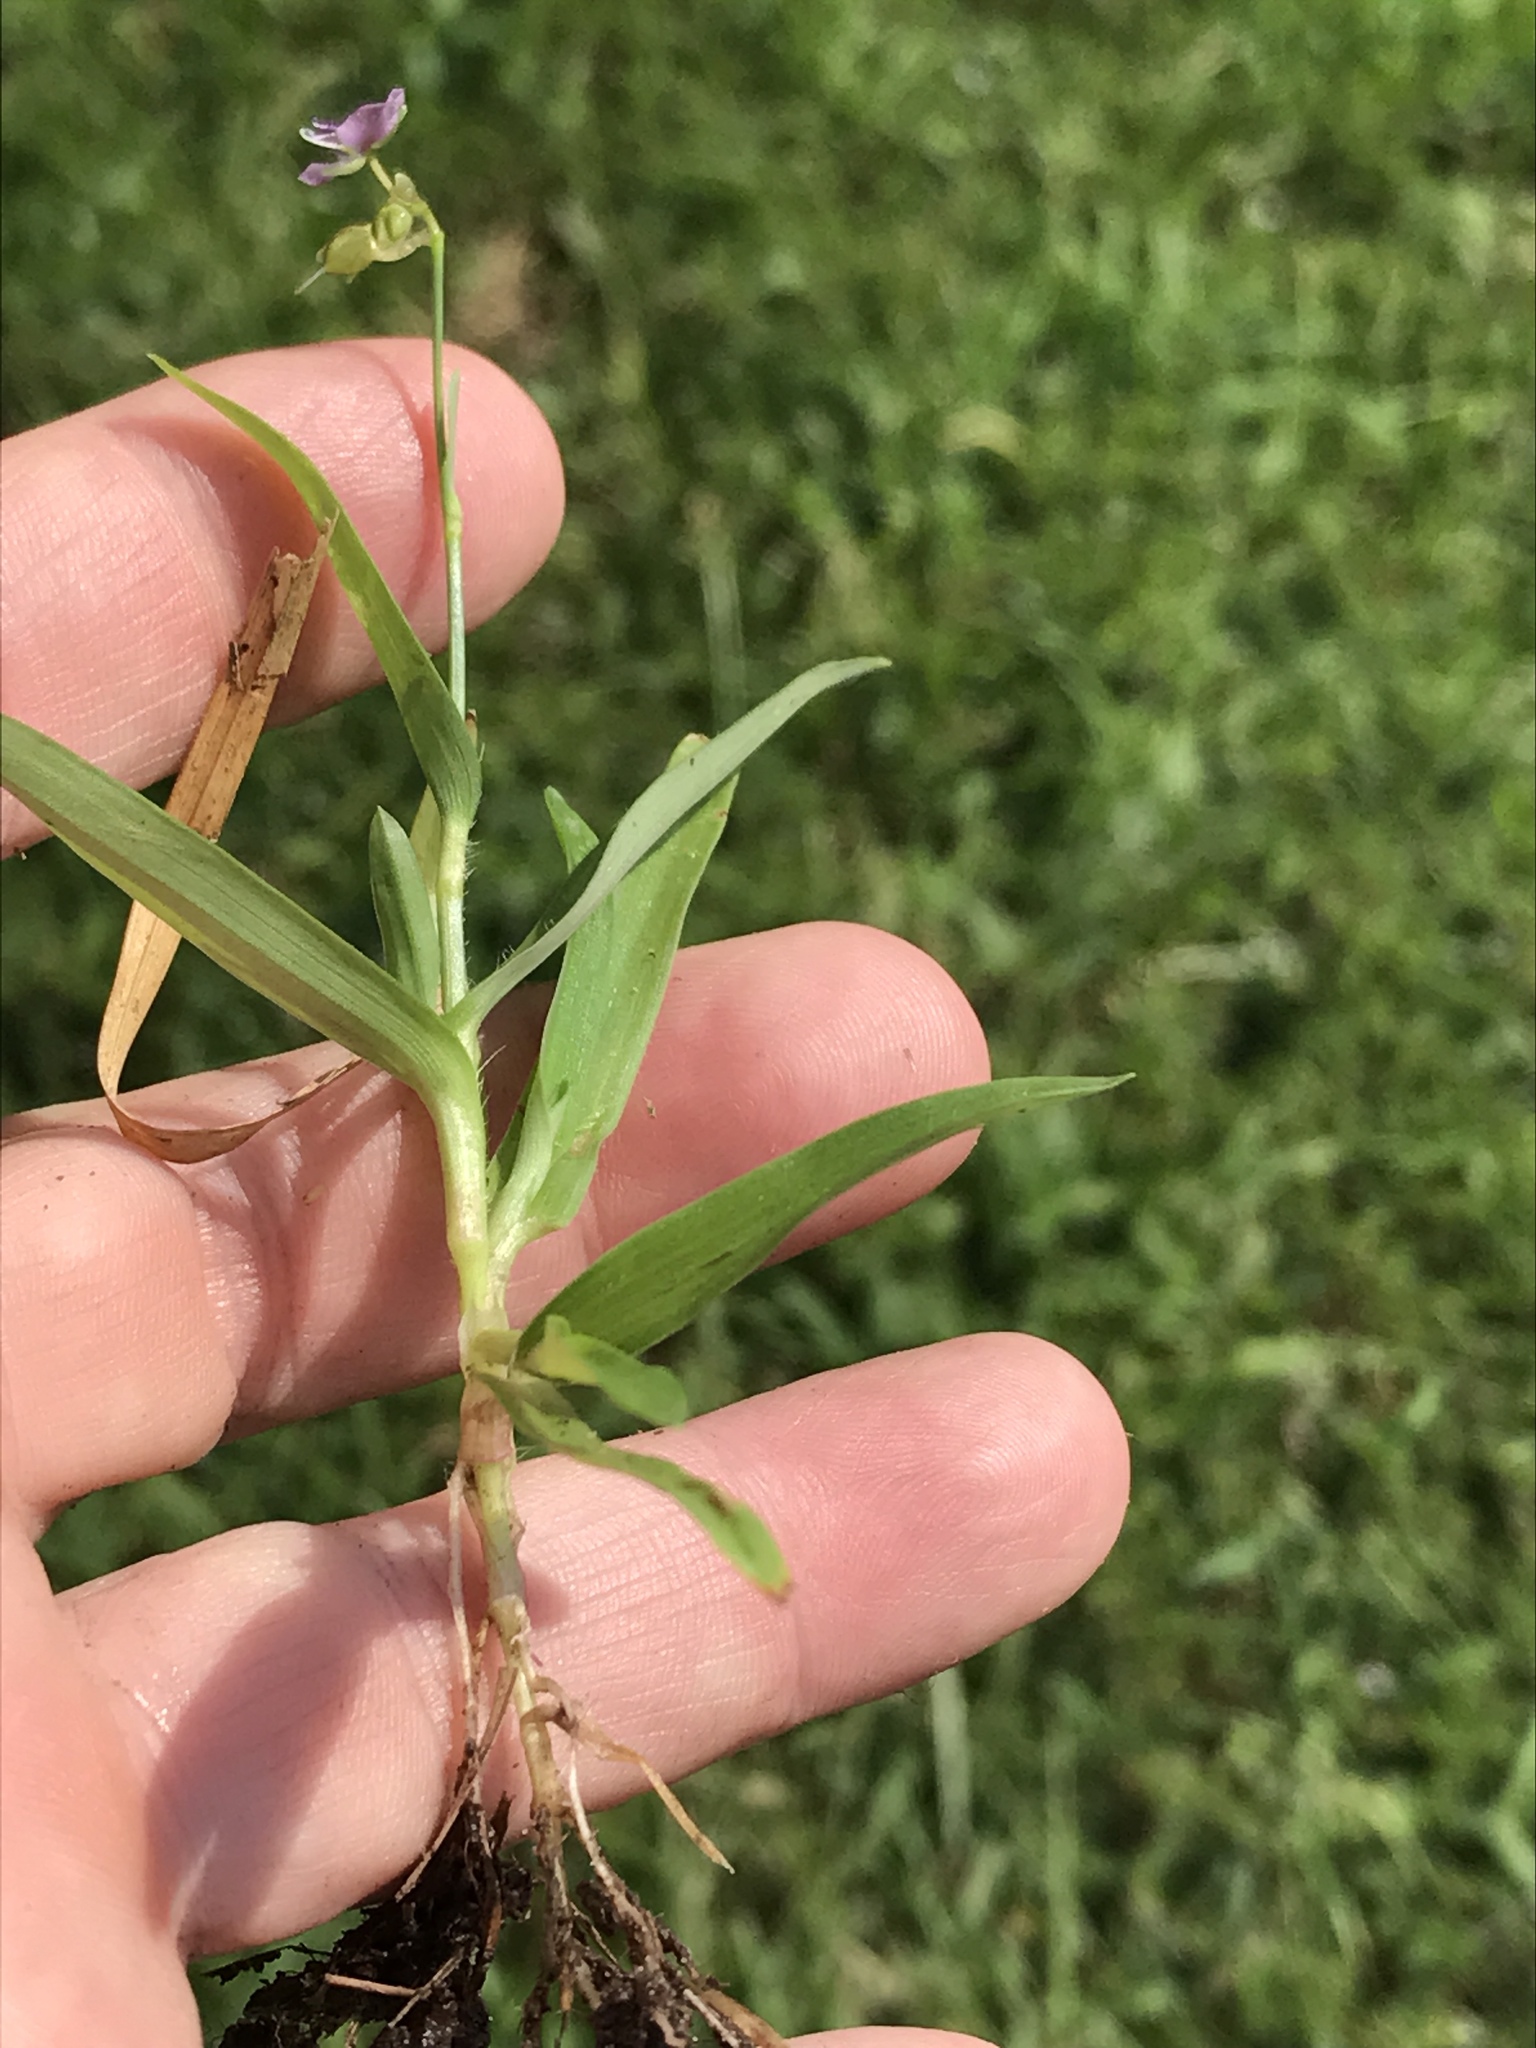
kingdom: Plantae
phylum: Tracheophyta
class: Liliopsida
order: Commelinales
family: Commelinaceae
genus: Murdannia
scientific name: Murdannia nudiflora
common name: Nakedstem dewflower
